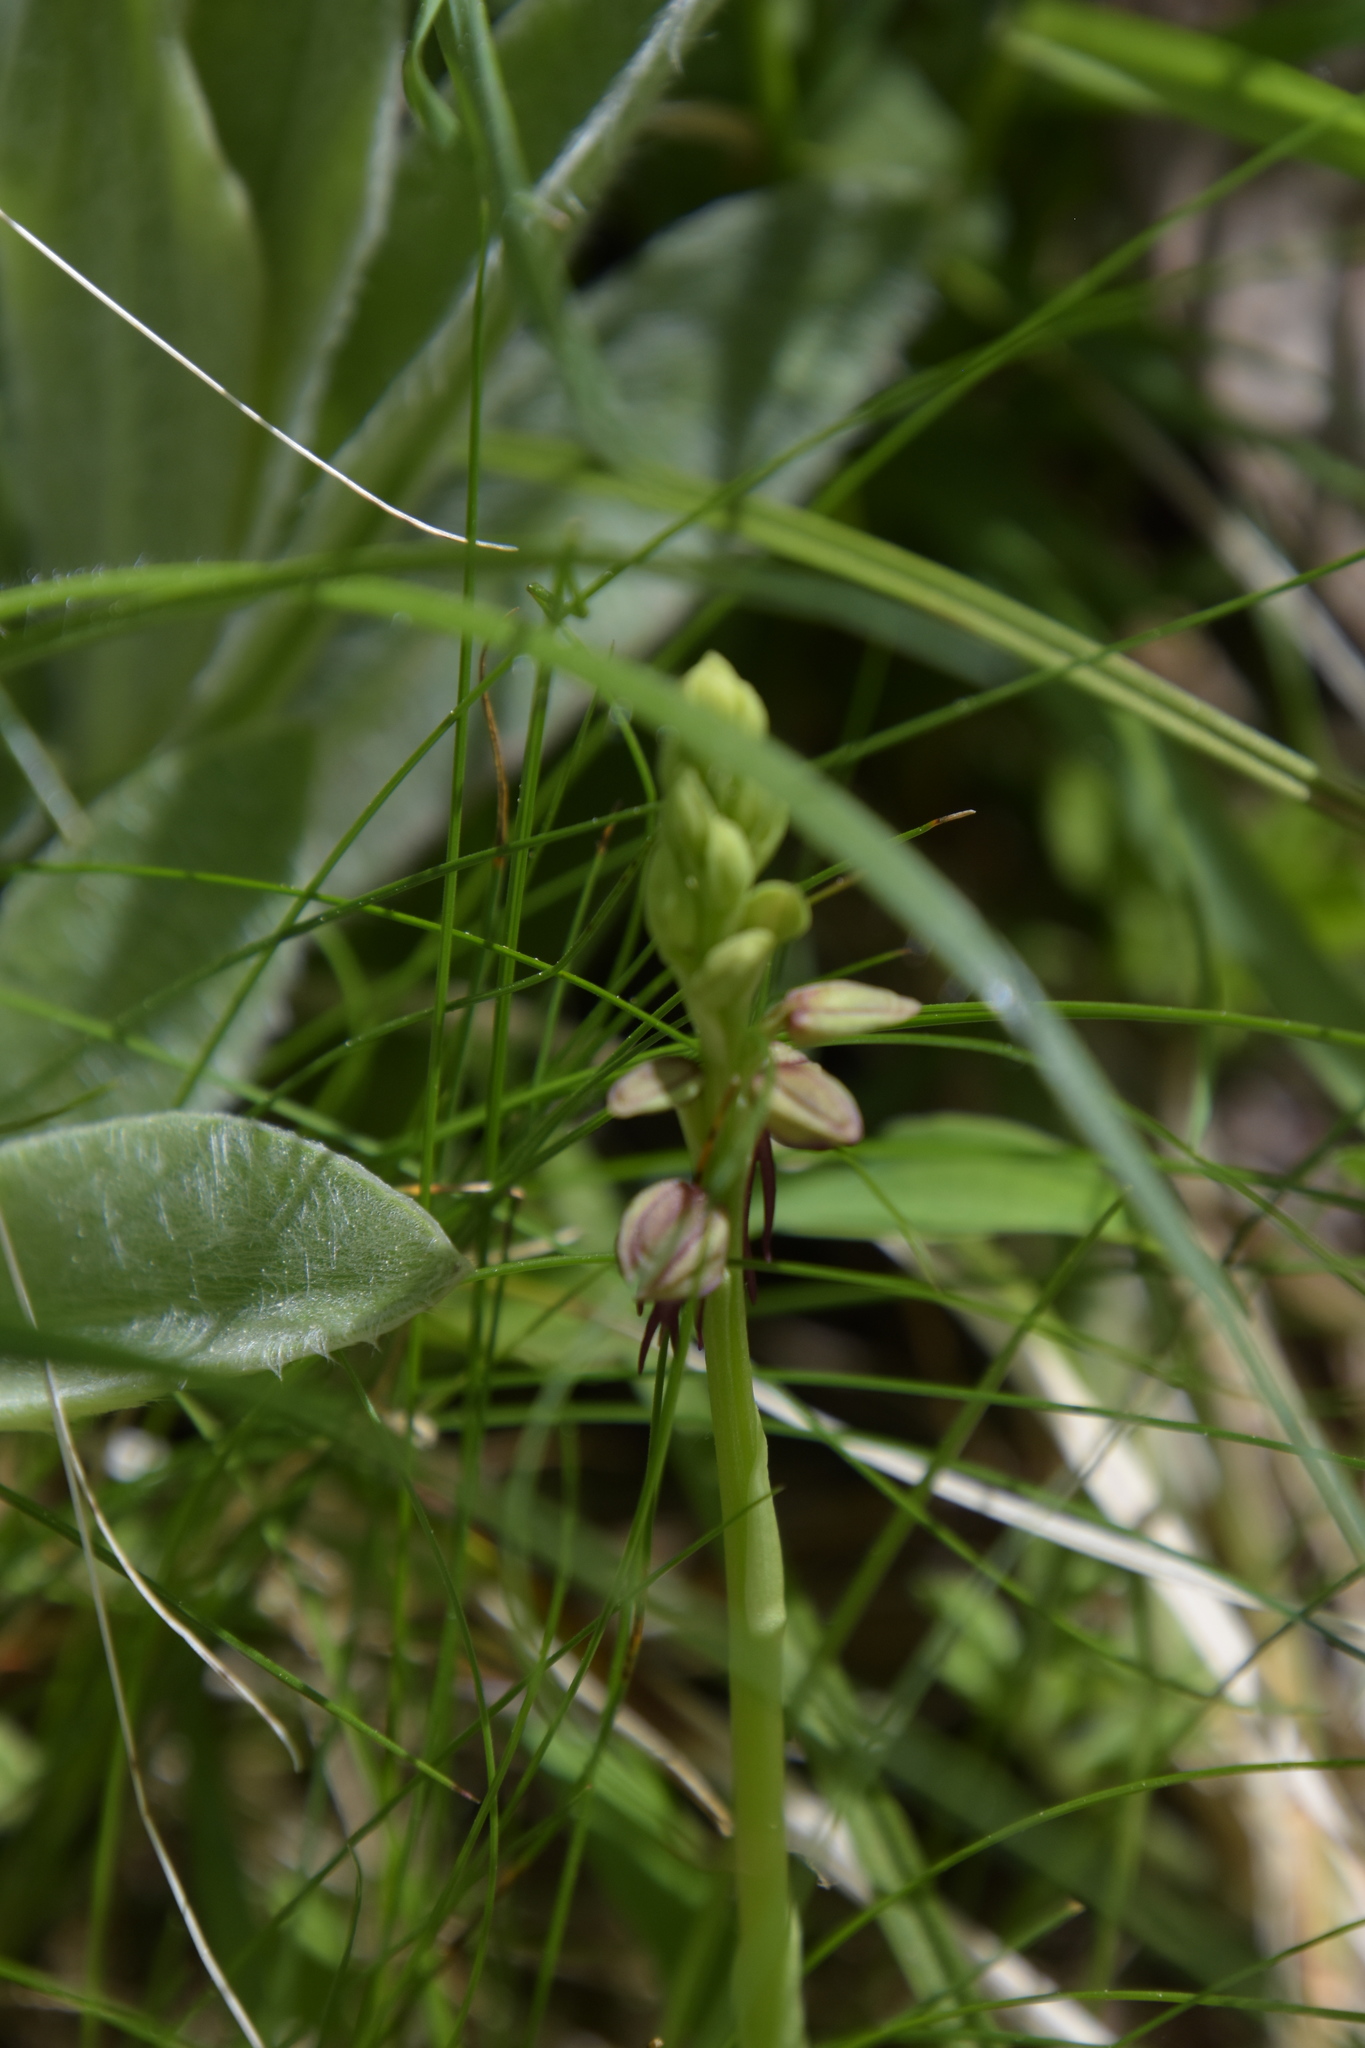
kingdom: Plantae
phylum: Tracheophyta
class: Liliopsida
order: Asparagales
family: Orchidaceae
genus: Orchis
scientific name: Orchis anthropophora
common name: Man orchid
